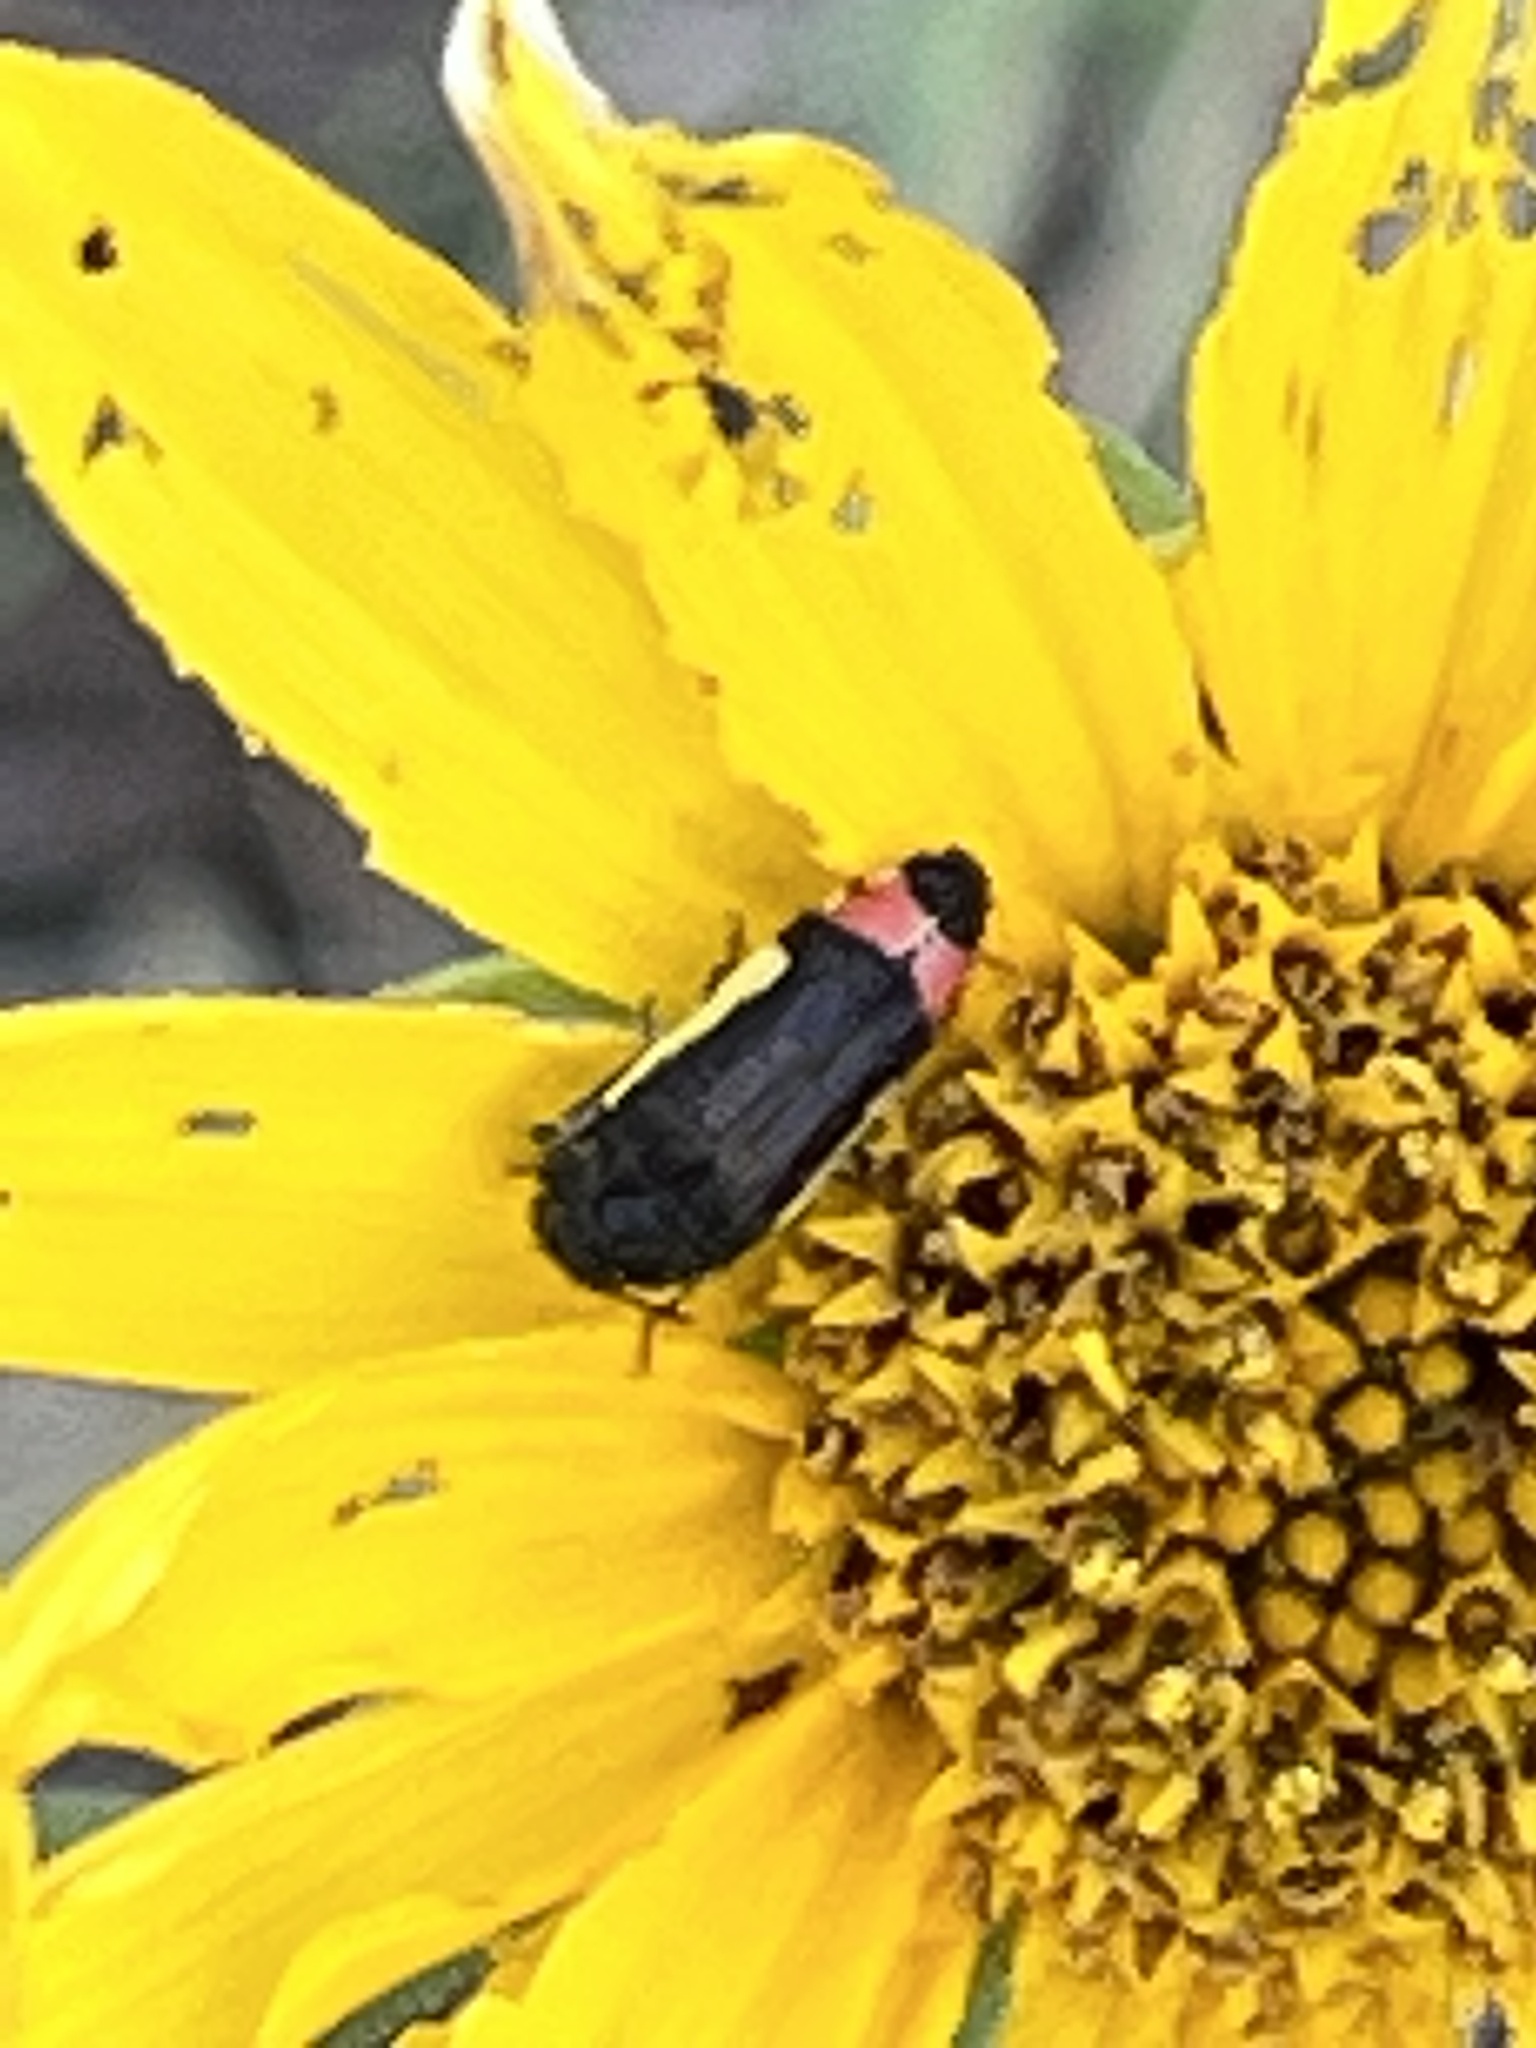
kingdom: Animalia
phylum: Arthropoda
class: Insecta
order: Coleoptera
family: Buprestidae
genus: Acmaeodera
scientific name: Acmaeodera flavomarginata
